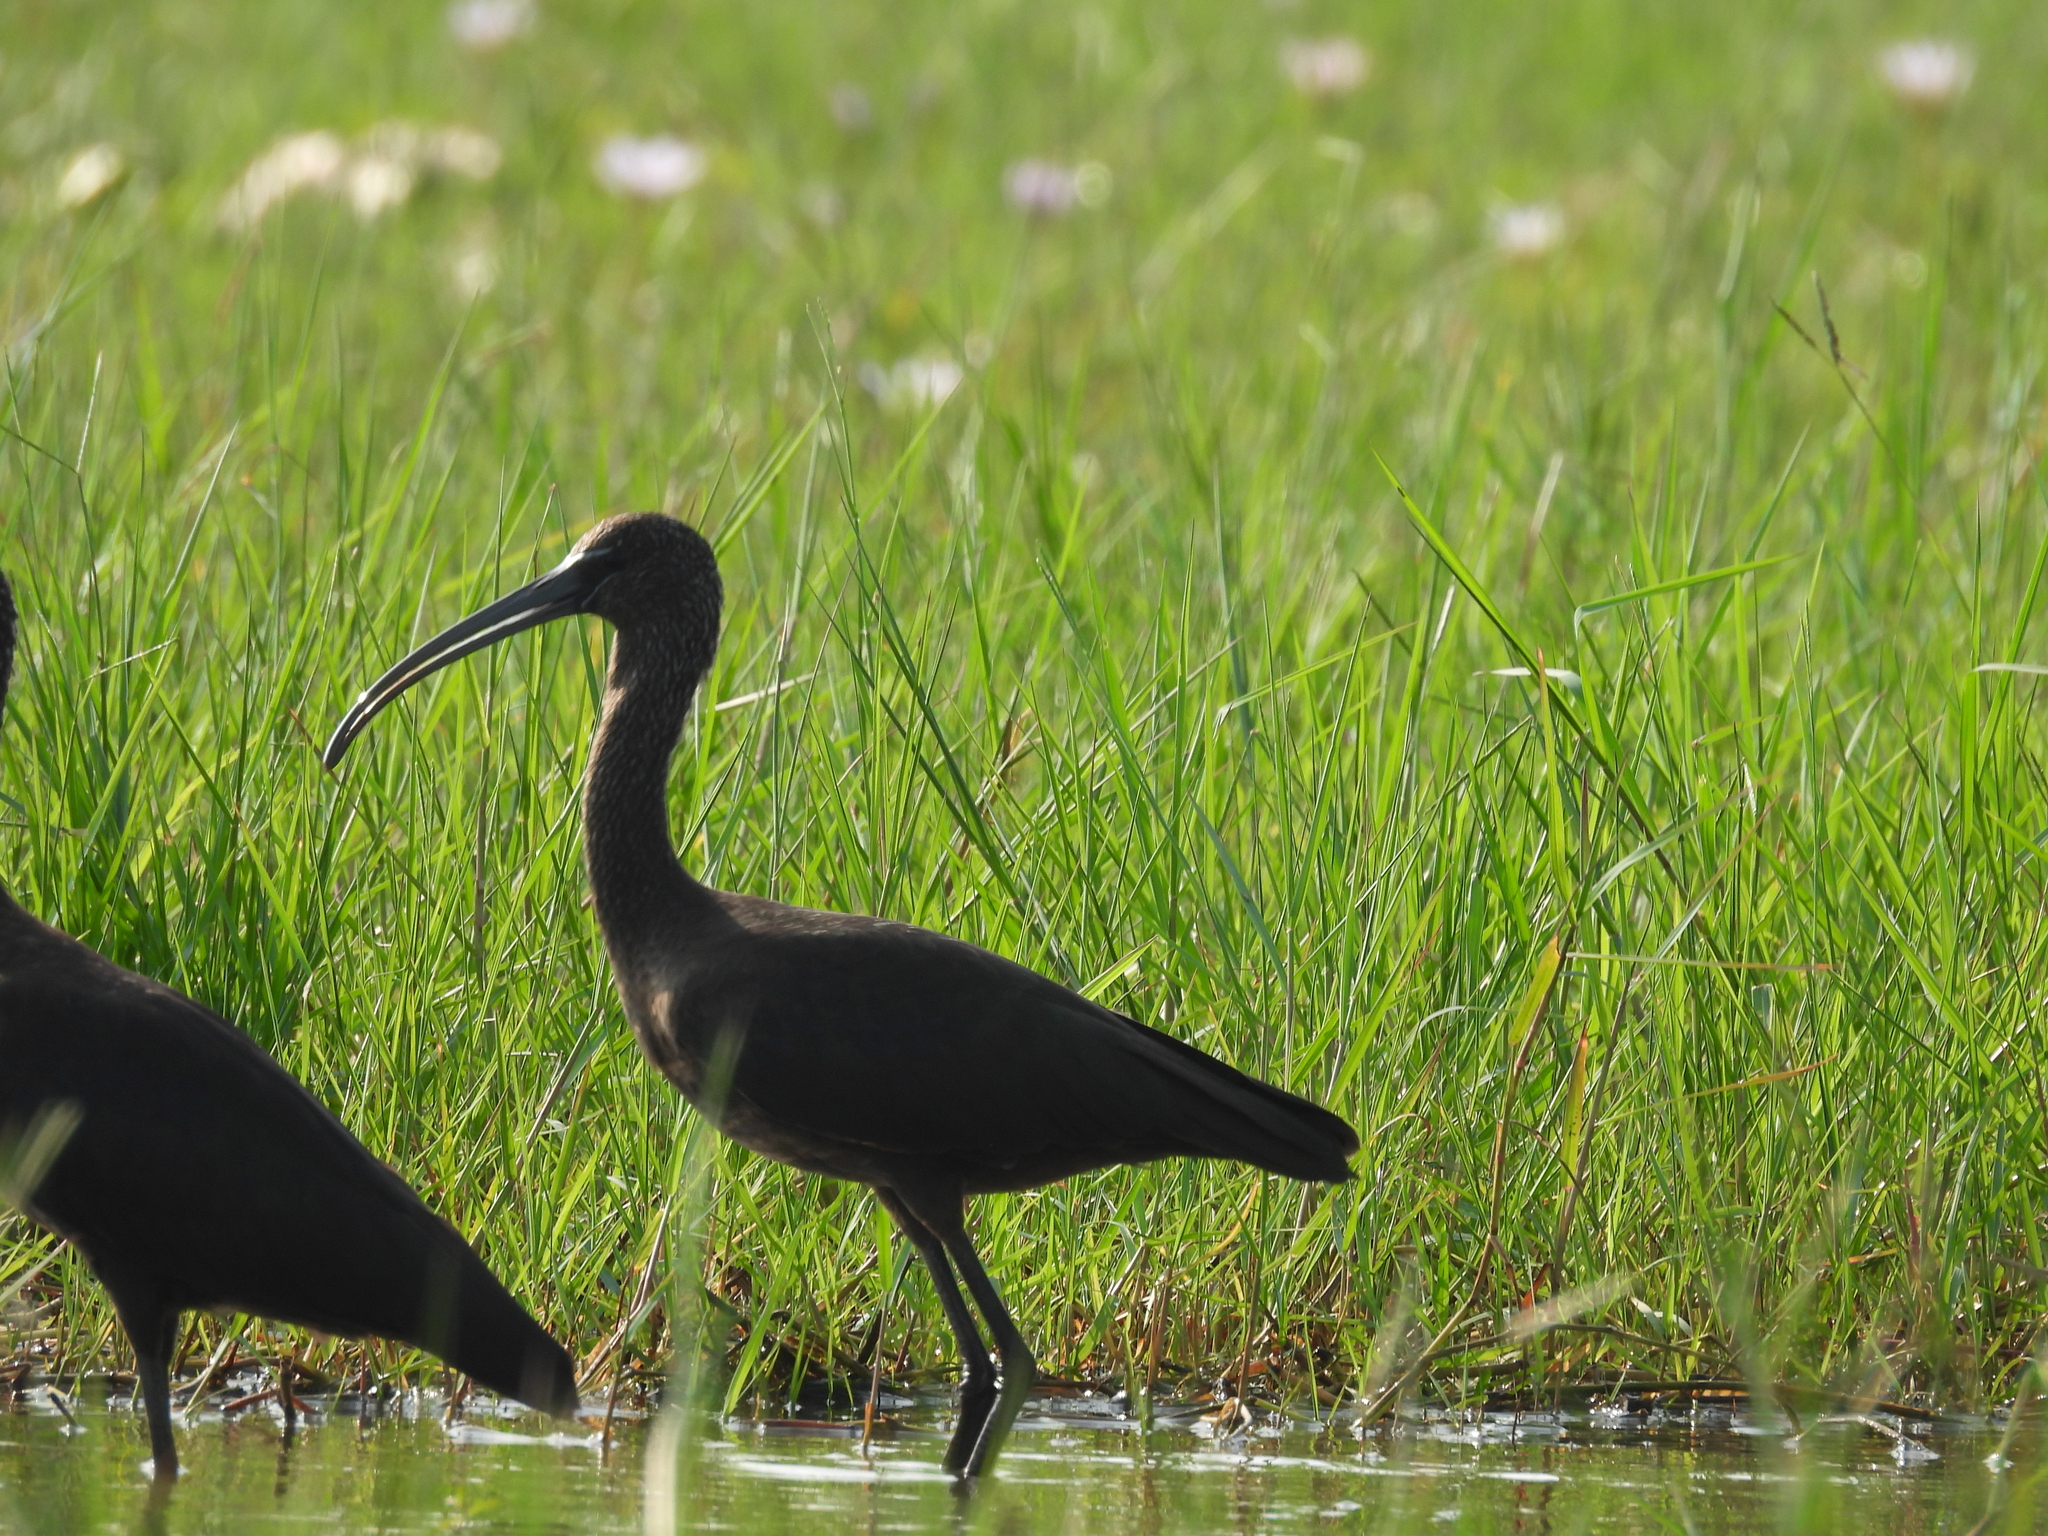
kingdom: Animalia
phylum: Chordata
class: Aves
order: Pelecaniformes
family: Threskiornithidae
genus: Plegadis
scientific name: Plegadis falcinellus
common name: Glossy ibis
